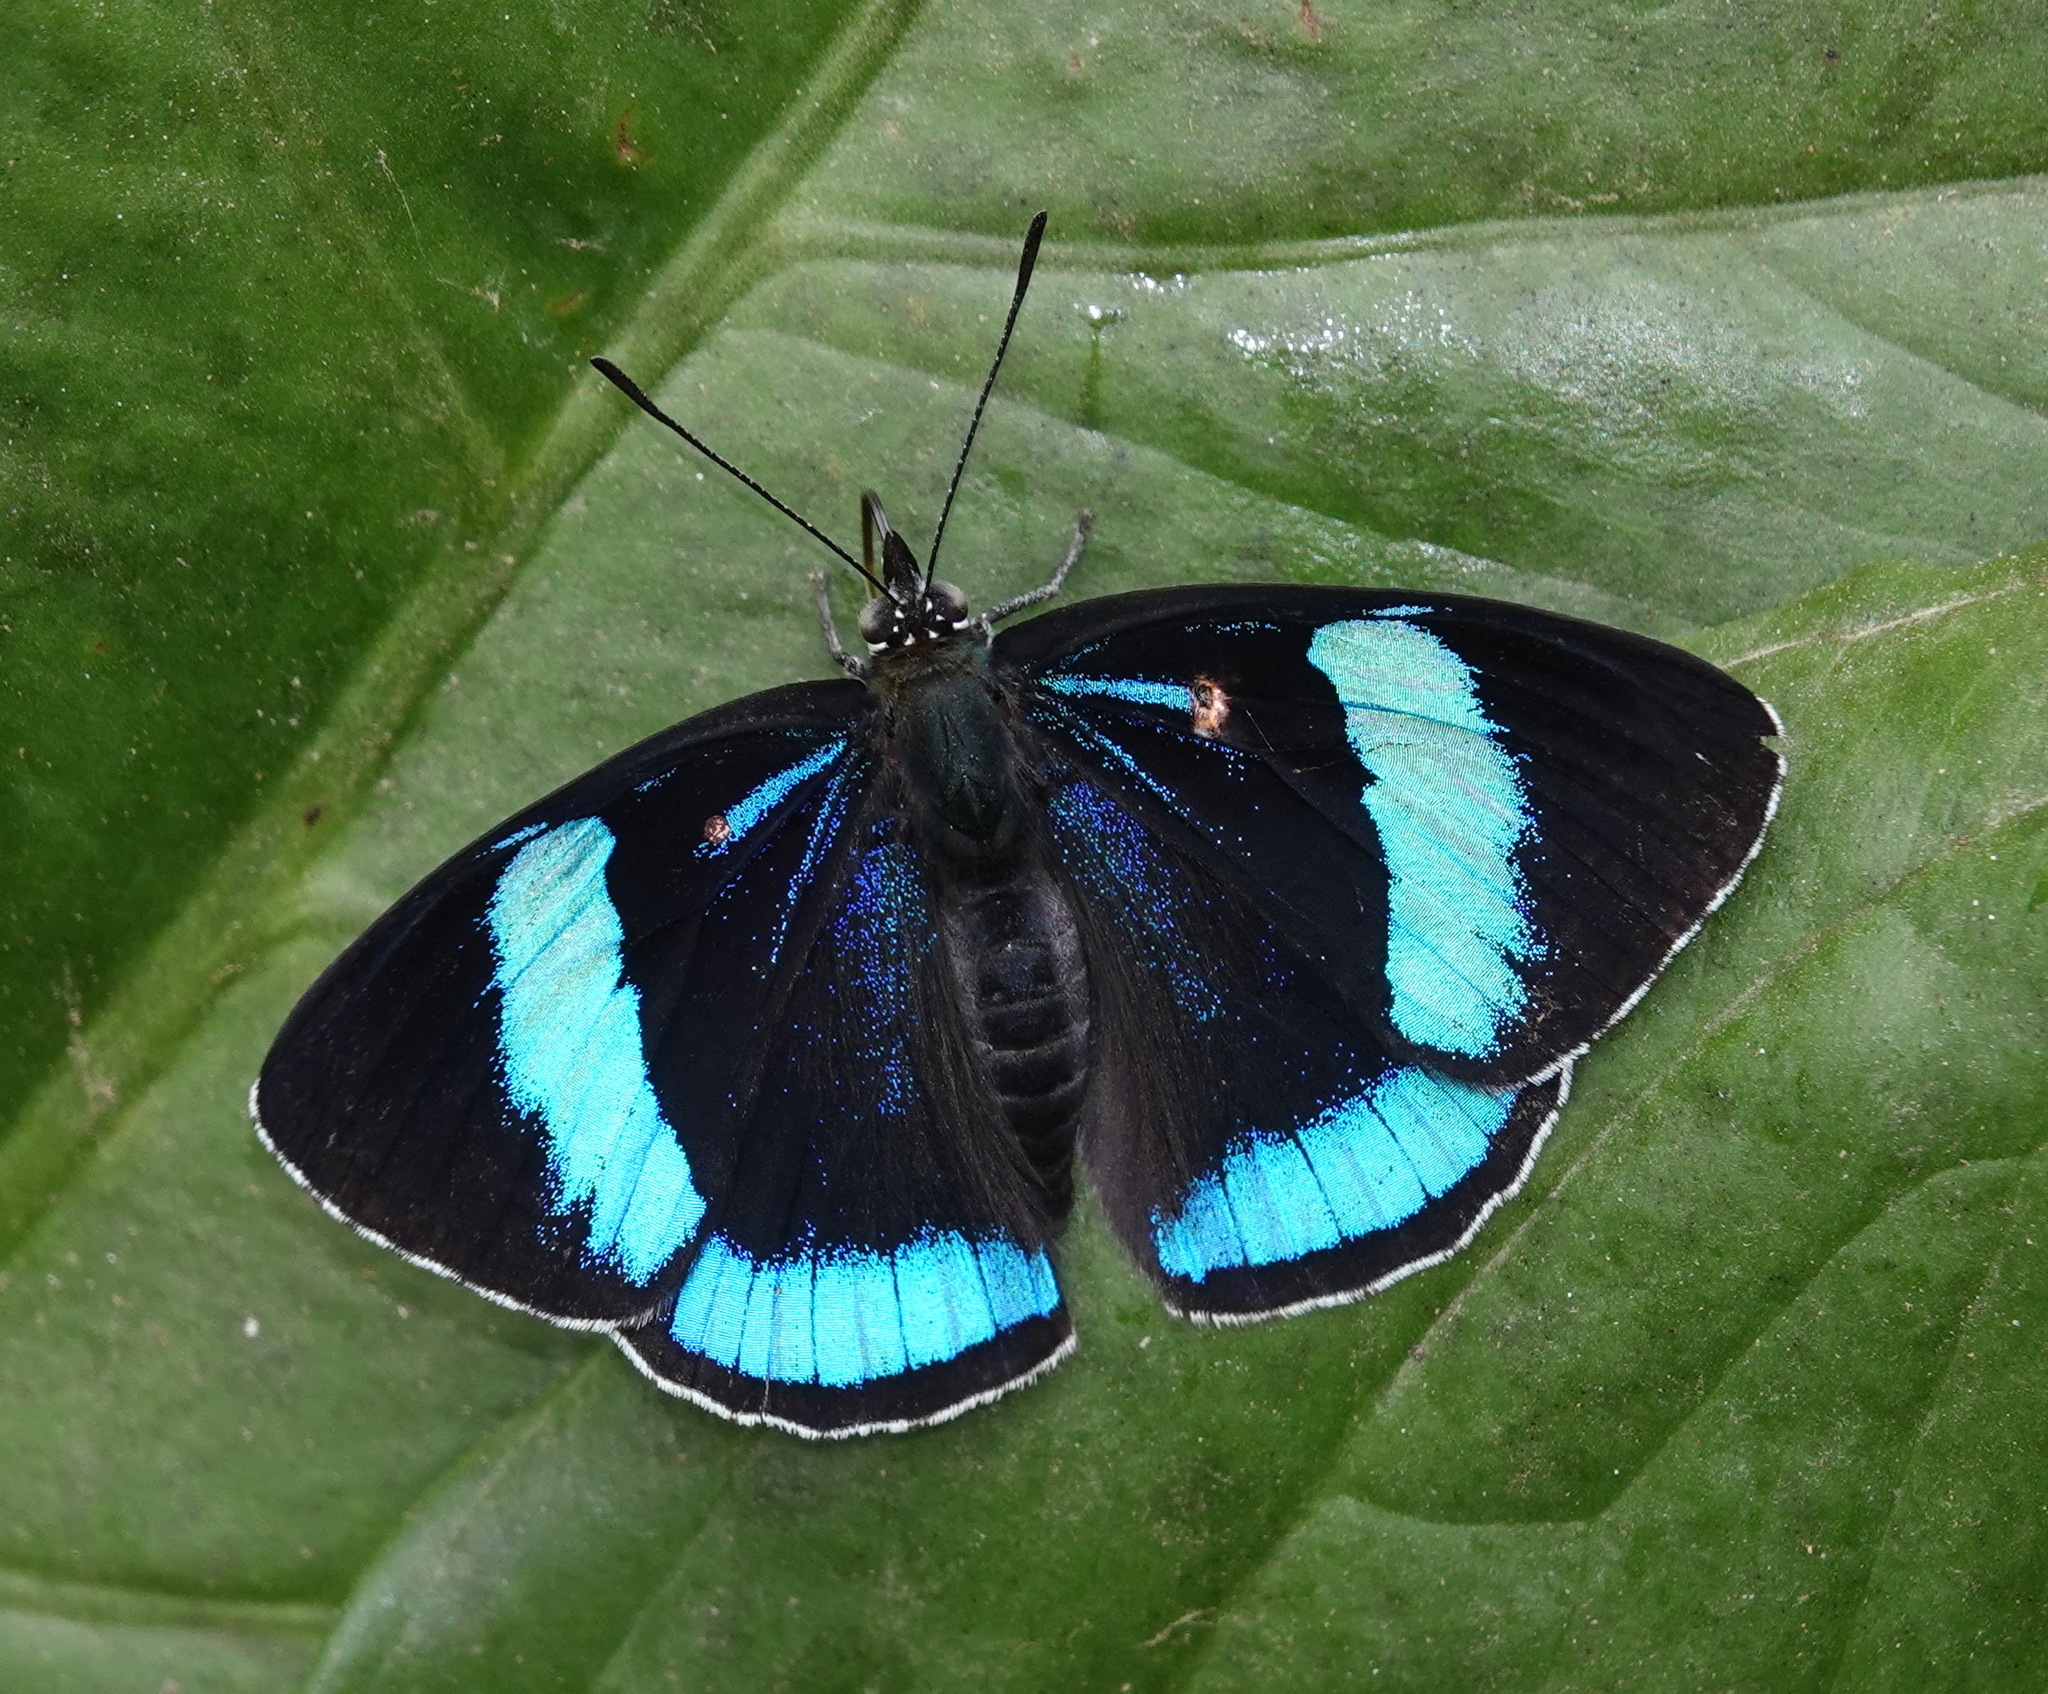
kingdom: Animalia
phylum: Arthropoda
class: Insecta
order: Lepidoptera
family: Nymphalidae
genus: Perisama
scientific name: Perisama Mesotaenia vaninka
